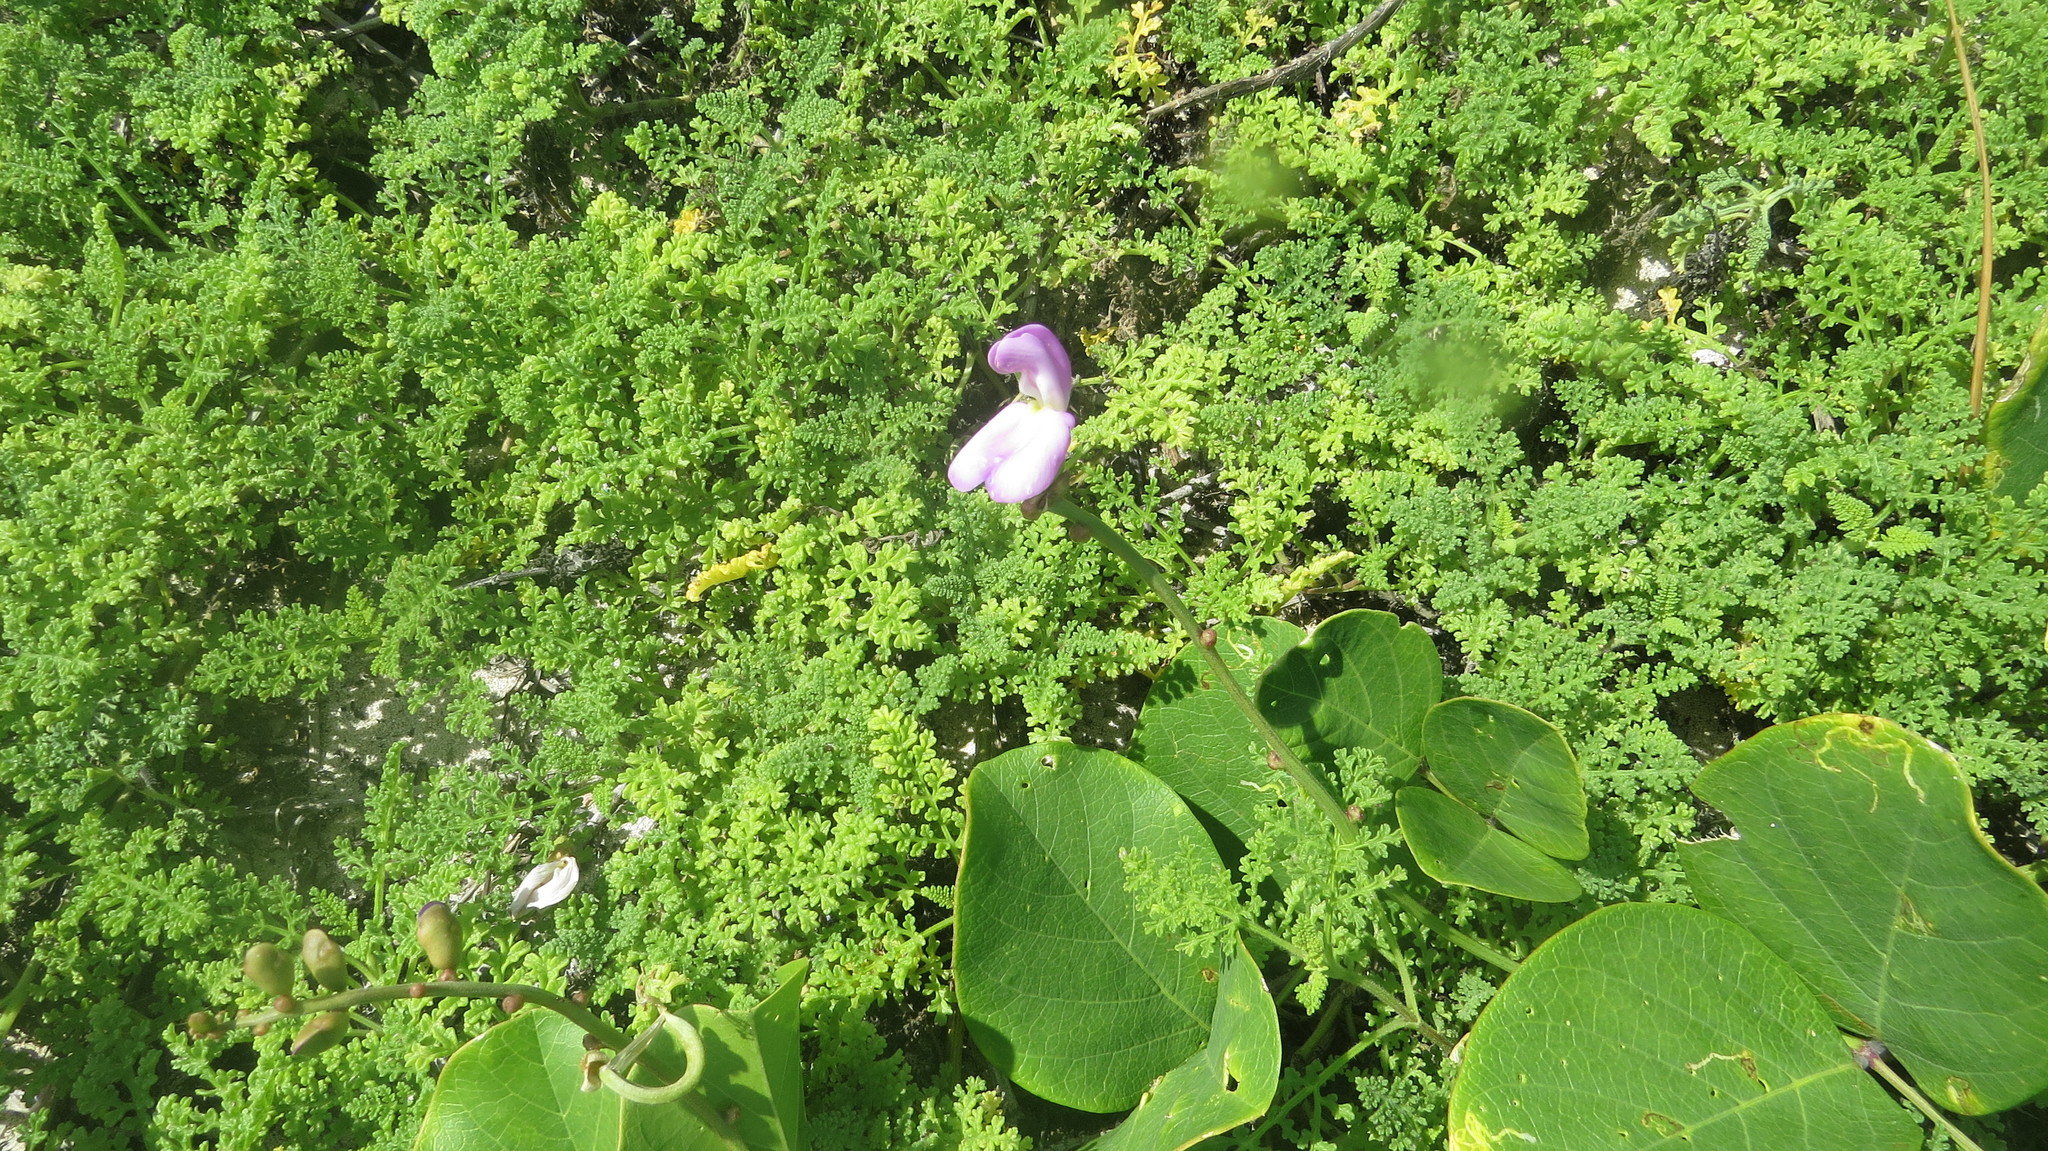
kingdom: Plantae
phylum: Tracheophyta
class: Magnoliopsida
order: Fabales
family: Fabaceae
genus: Canavalia
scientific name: Canavalia rosea
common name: Beach-bean
